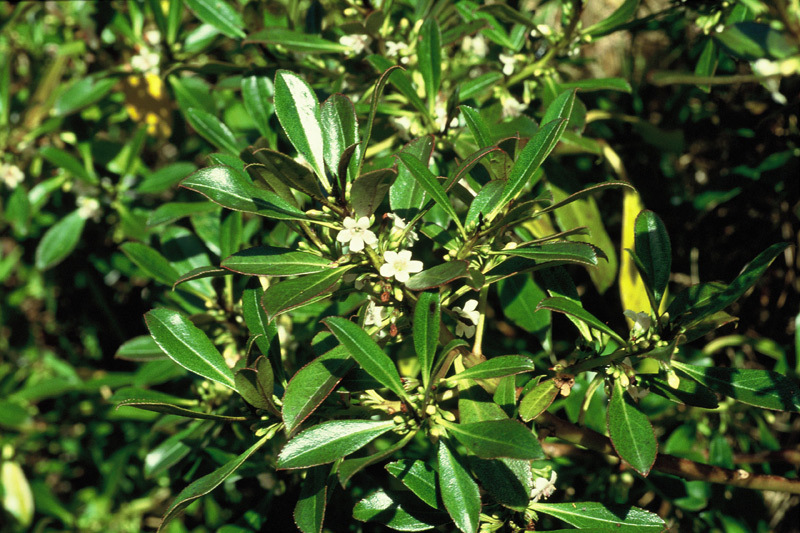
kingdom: Plantae
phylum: Tracheophyta
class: Magnoliopsida
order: Lamiales
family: Scrophulariaceae
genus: Myoporum
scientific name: Myoporum laetum
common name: Ngaio tree
